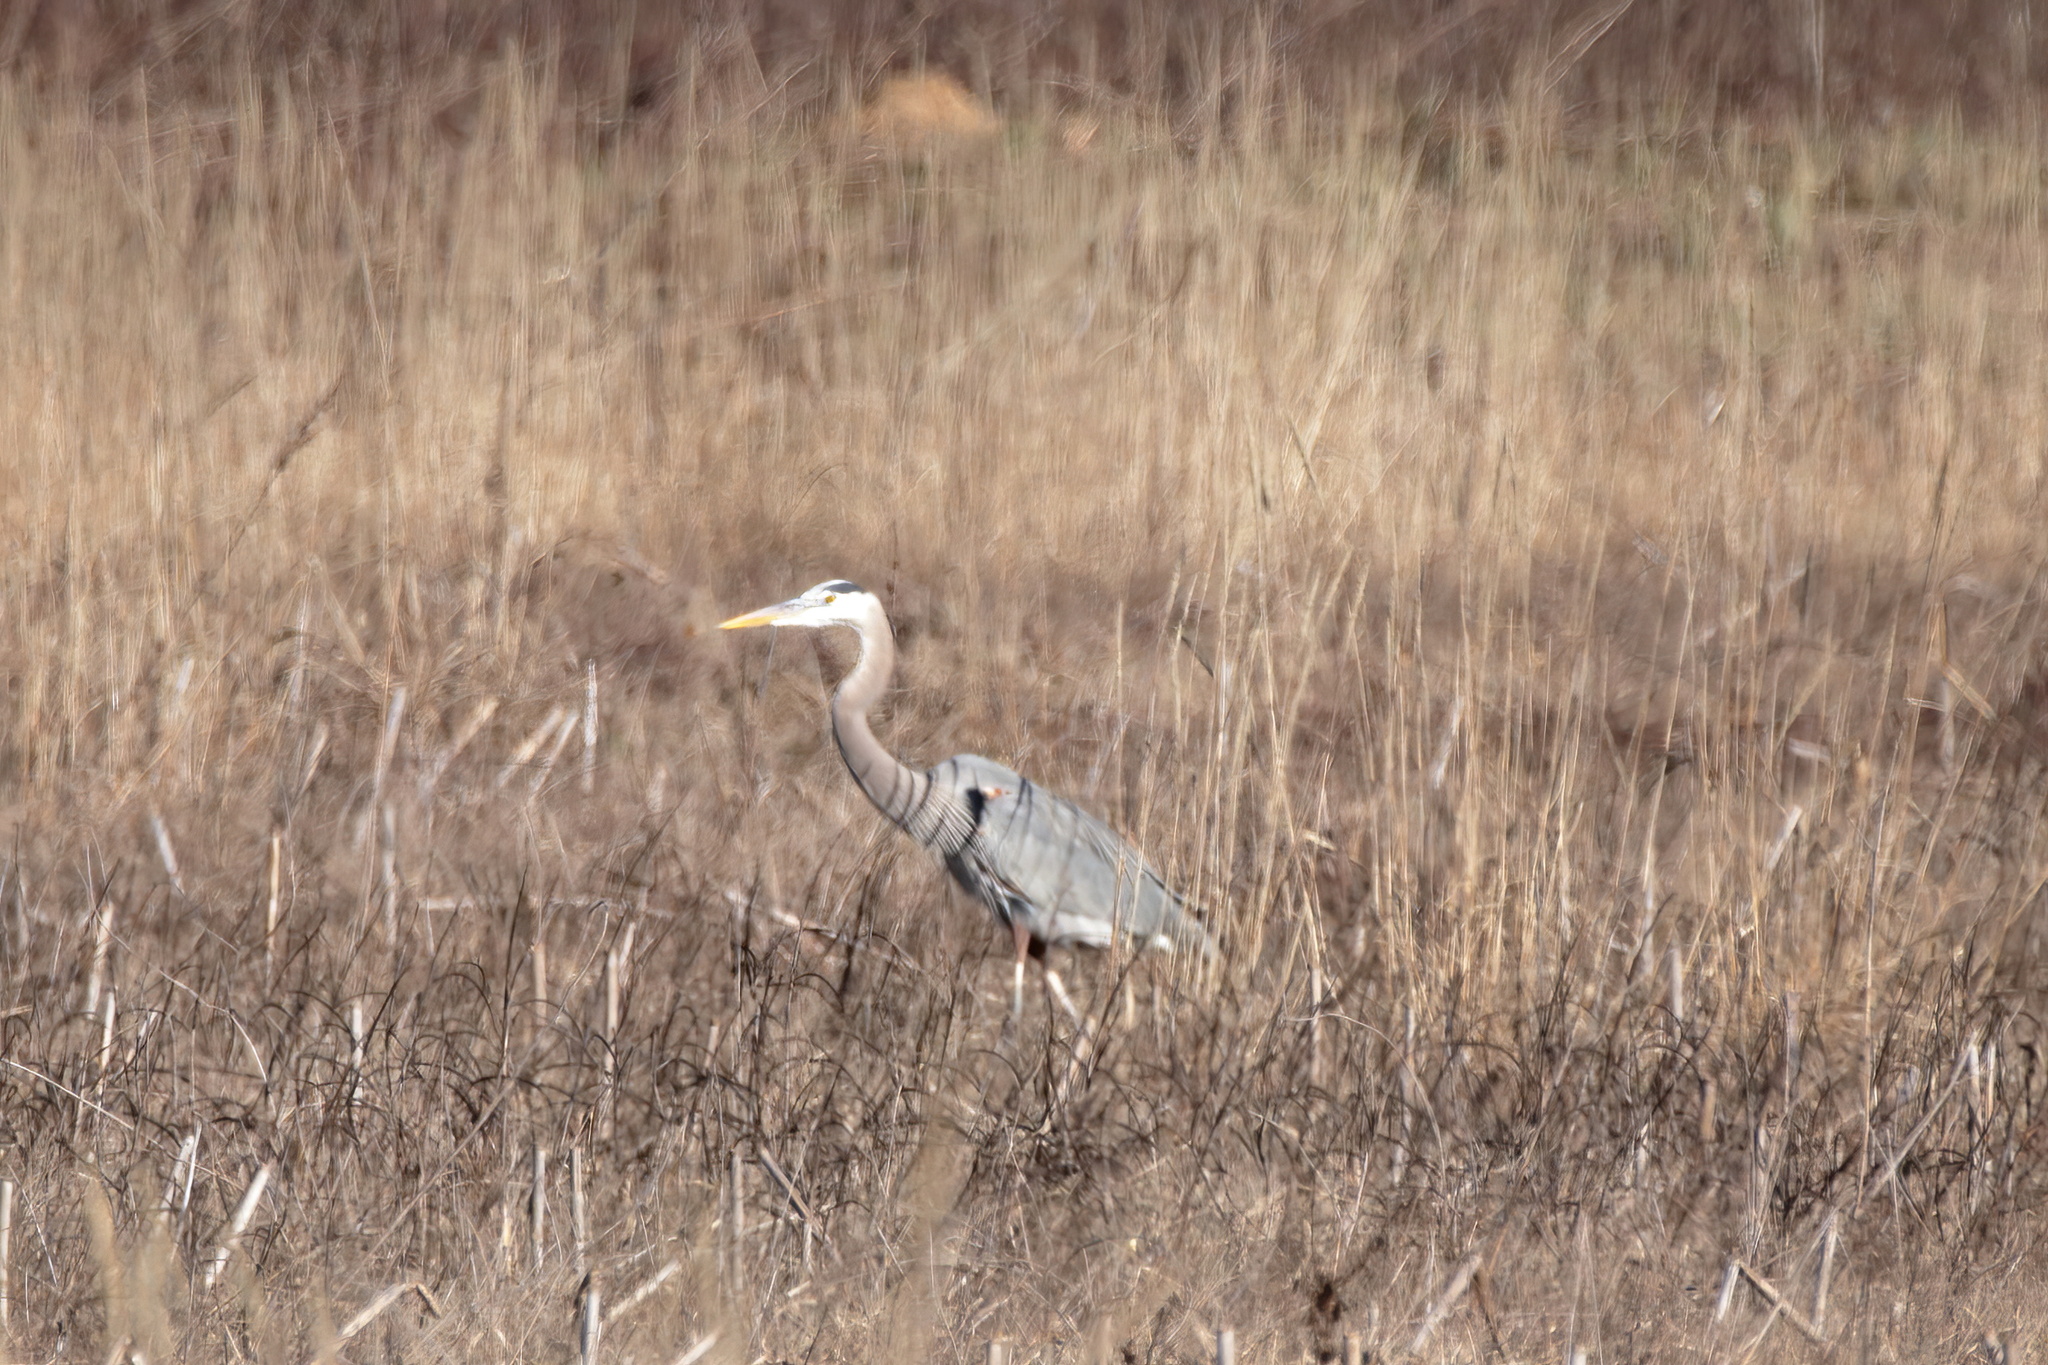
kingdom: Animalia
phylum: Chordata
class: Aves
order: Pelecaniformes
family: Ardeidae
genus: Ardea
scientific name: Ardea herodias
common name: Great blue heron
